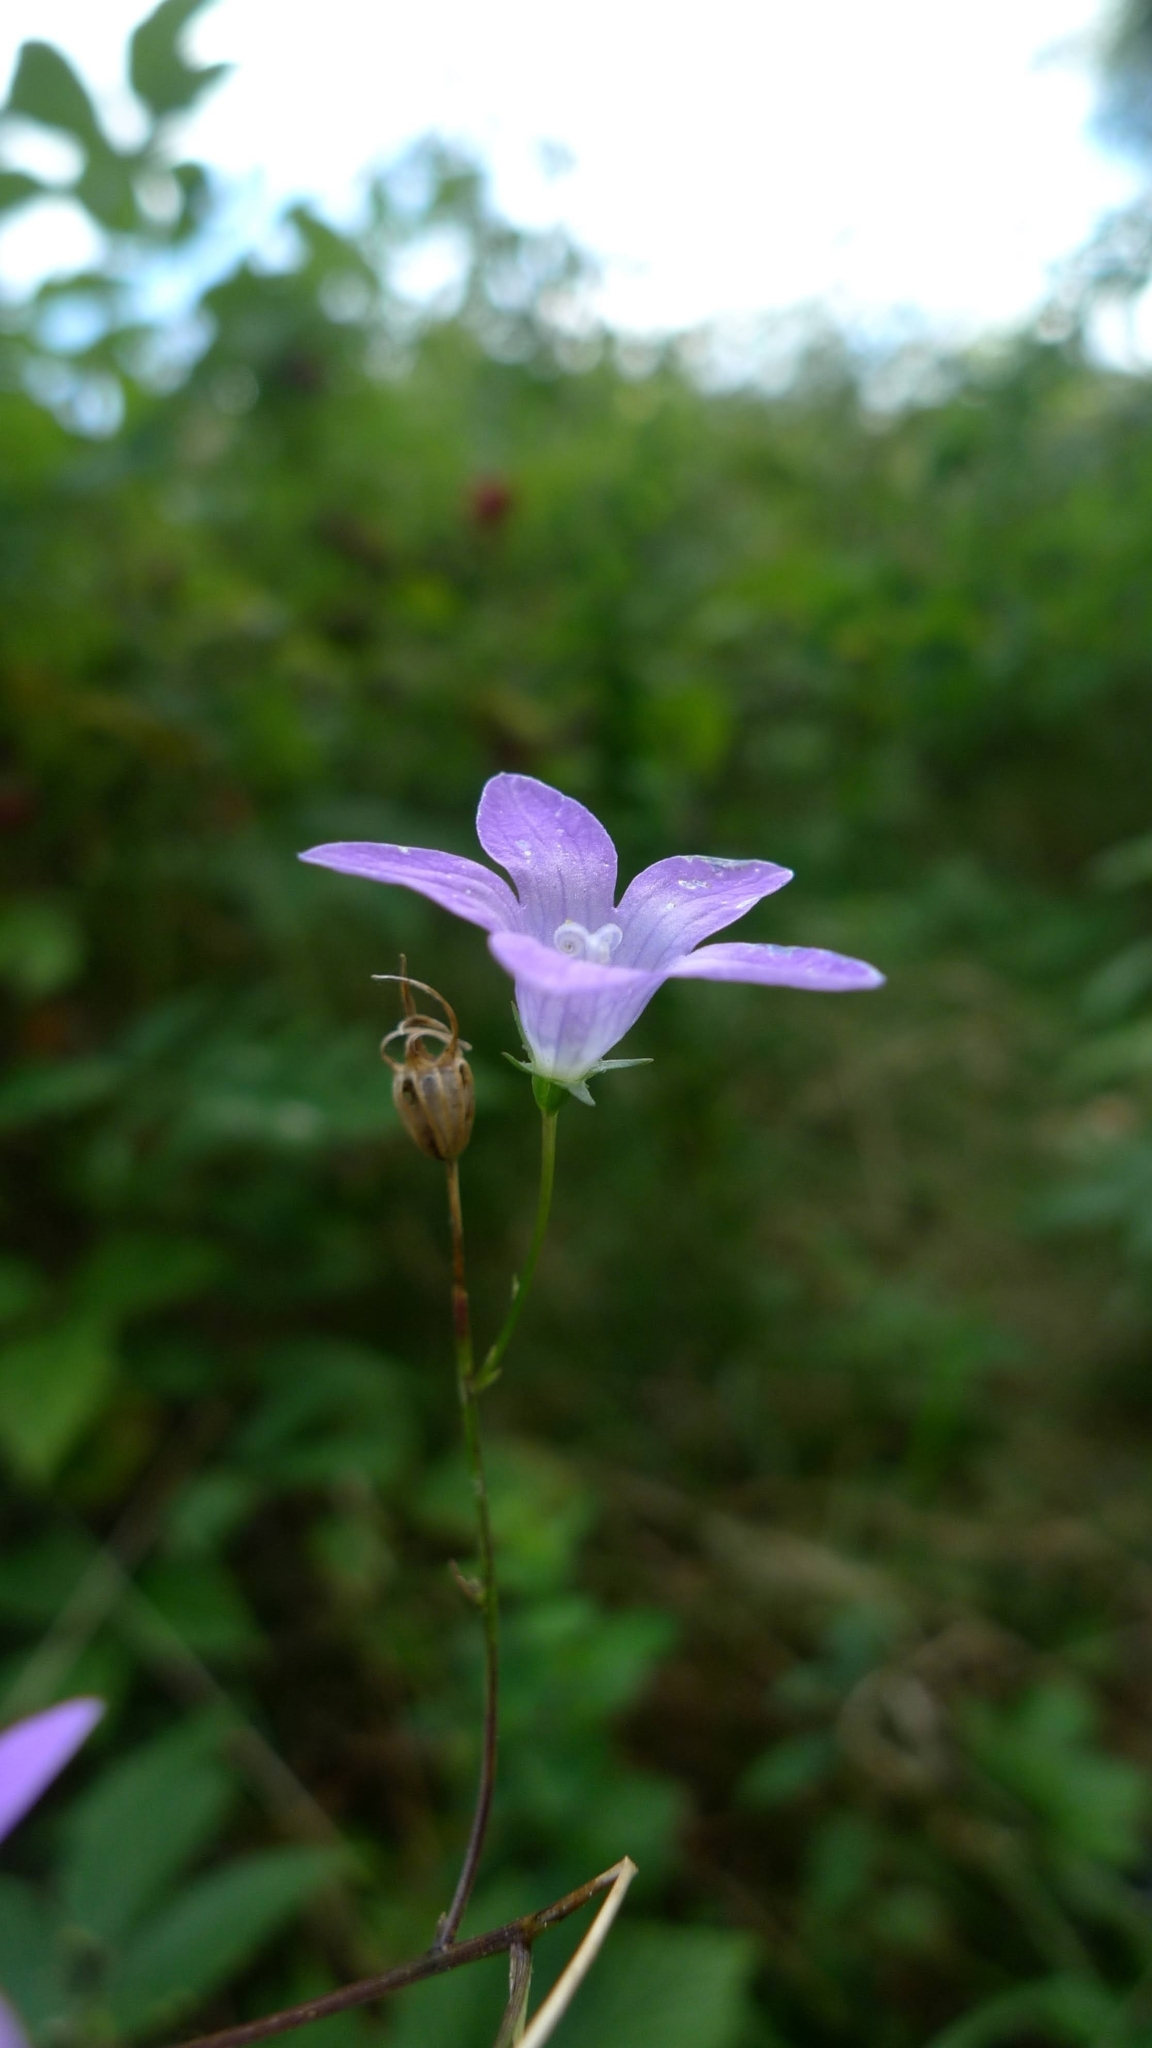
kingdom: Plantae
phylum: Tracheophyta
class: Magnoliopsida
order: Asterales
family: Campanulaceae
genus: Campanula
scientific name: Campanula patula
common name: Spreading bellflower
